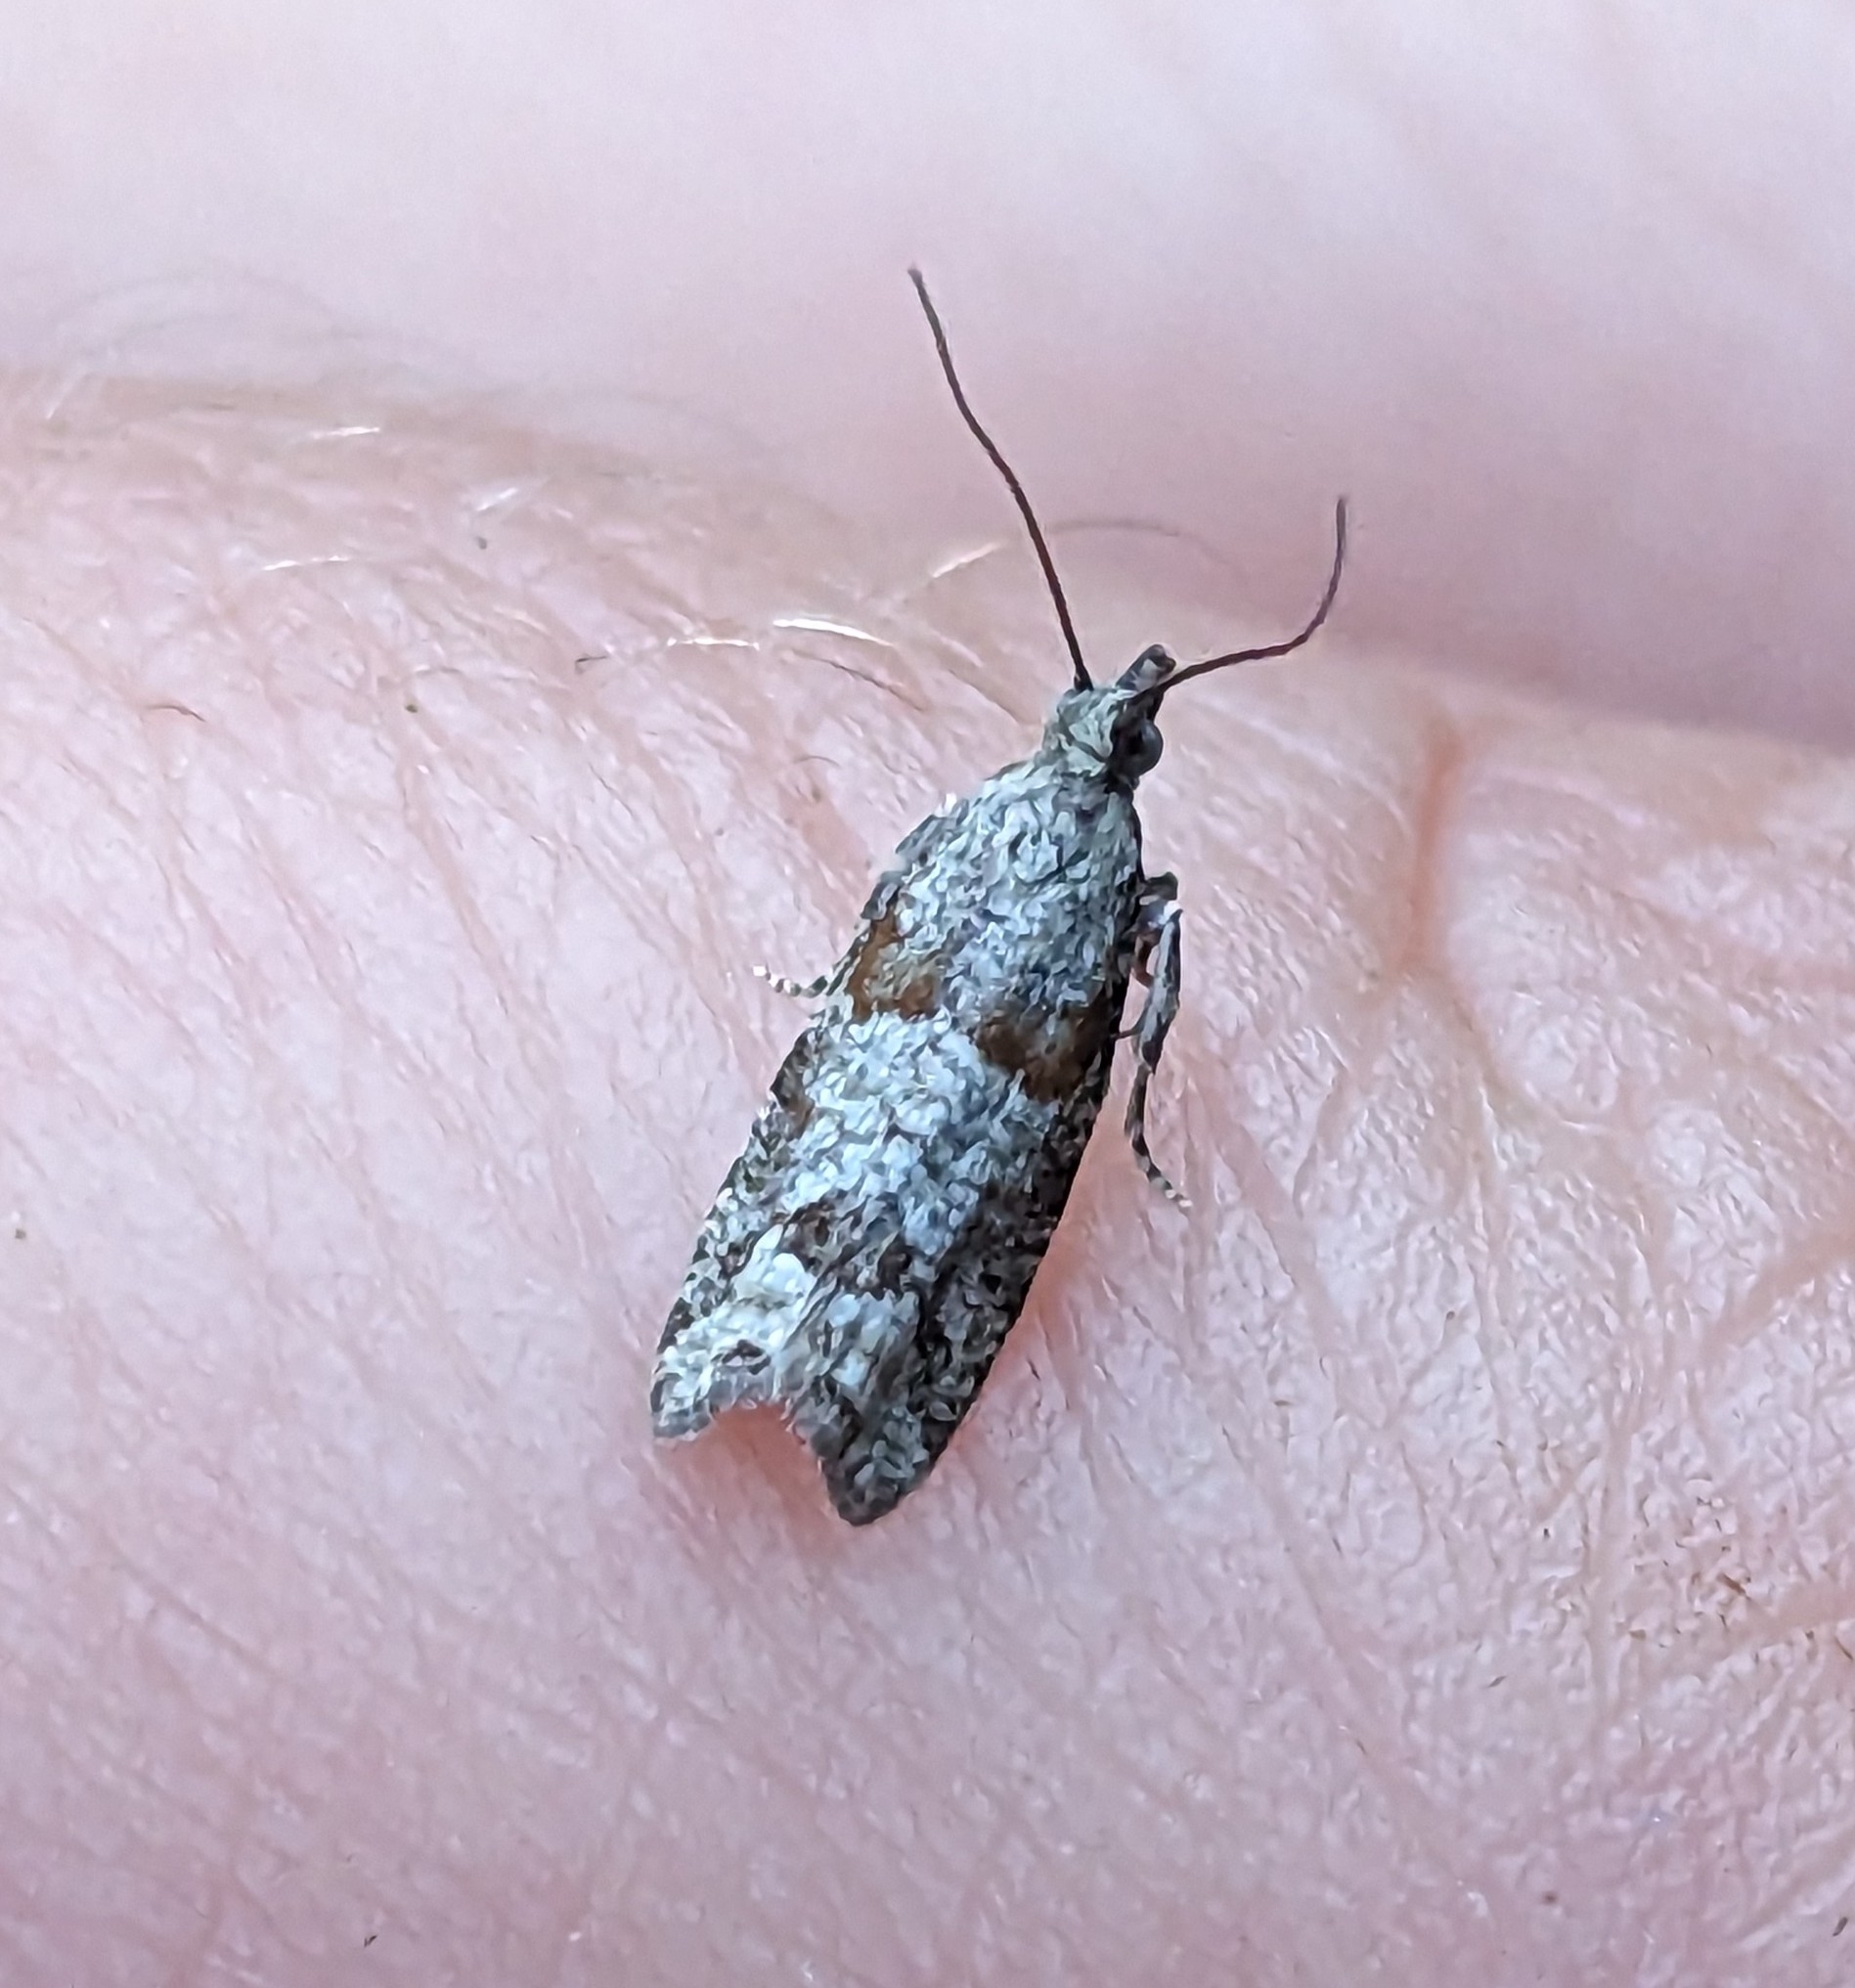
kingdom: Animalia
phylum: Arthropoda
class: Insecta
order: Lepidoptera
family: Tortricidae
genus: Epinotia
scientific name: Epinotia radicana
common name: Red-striped needleworm moth
